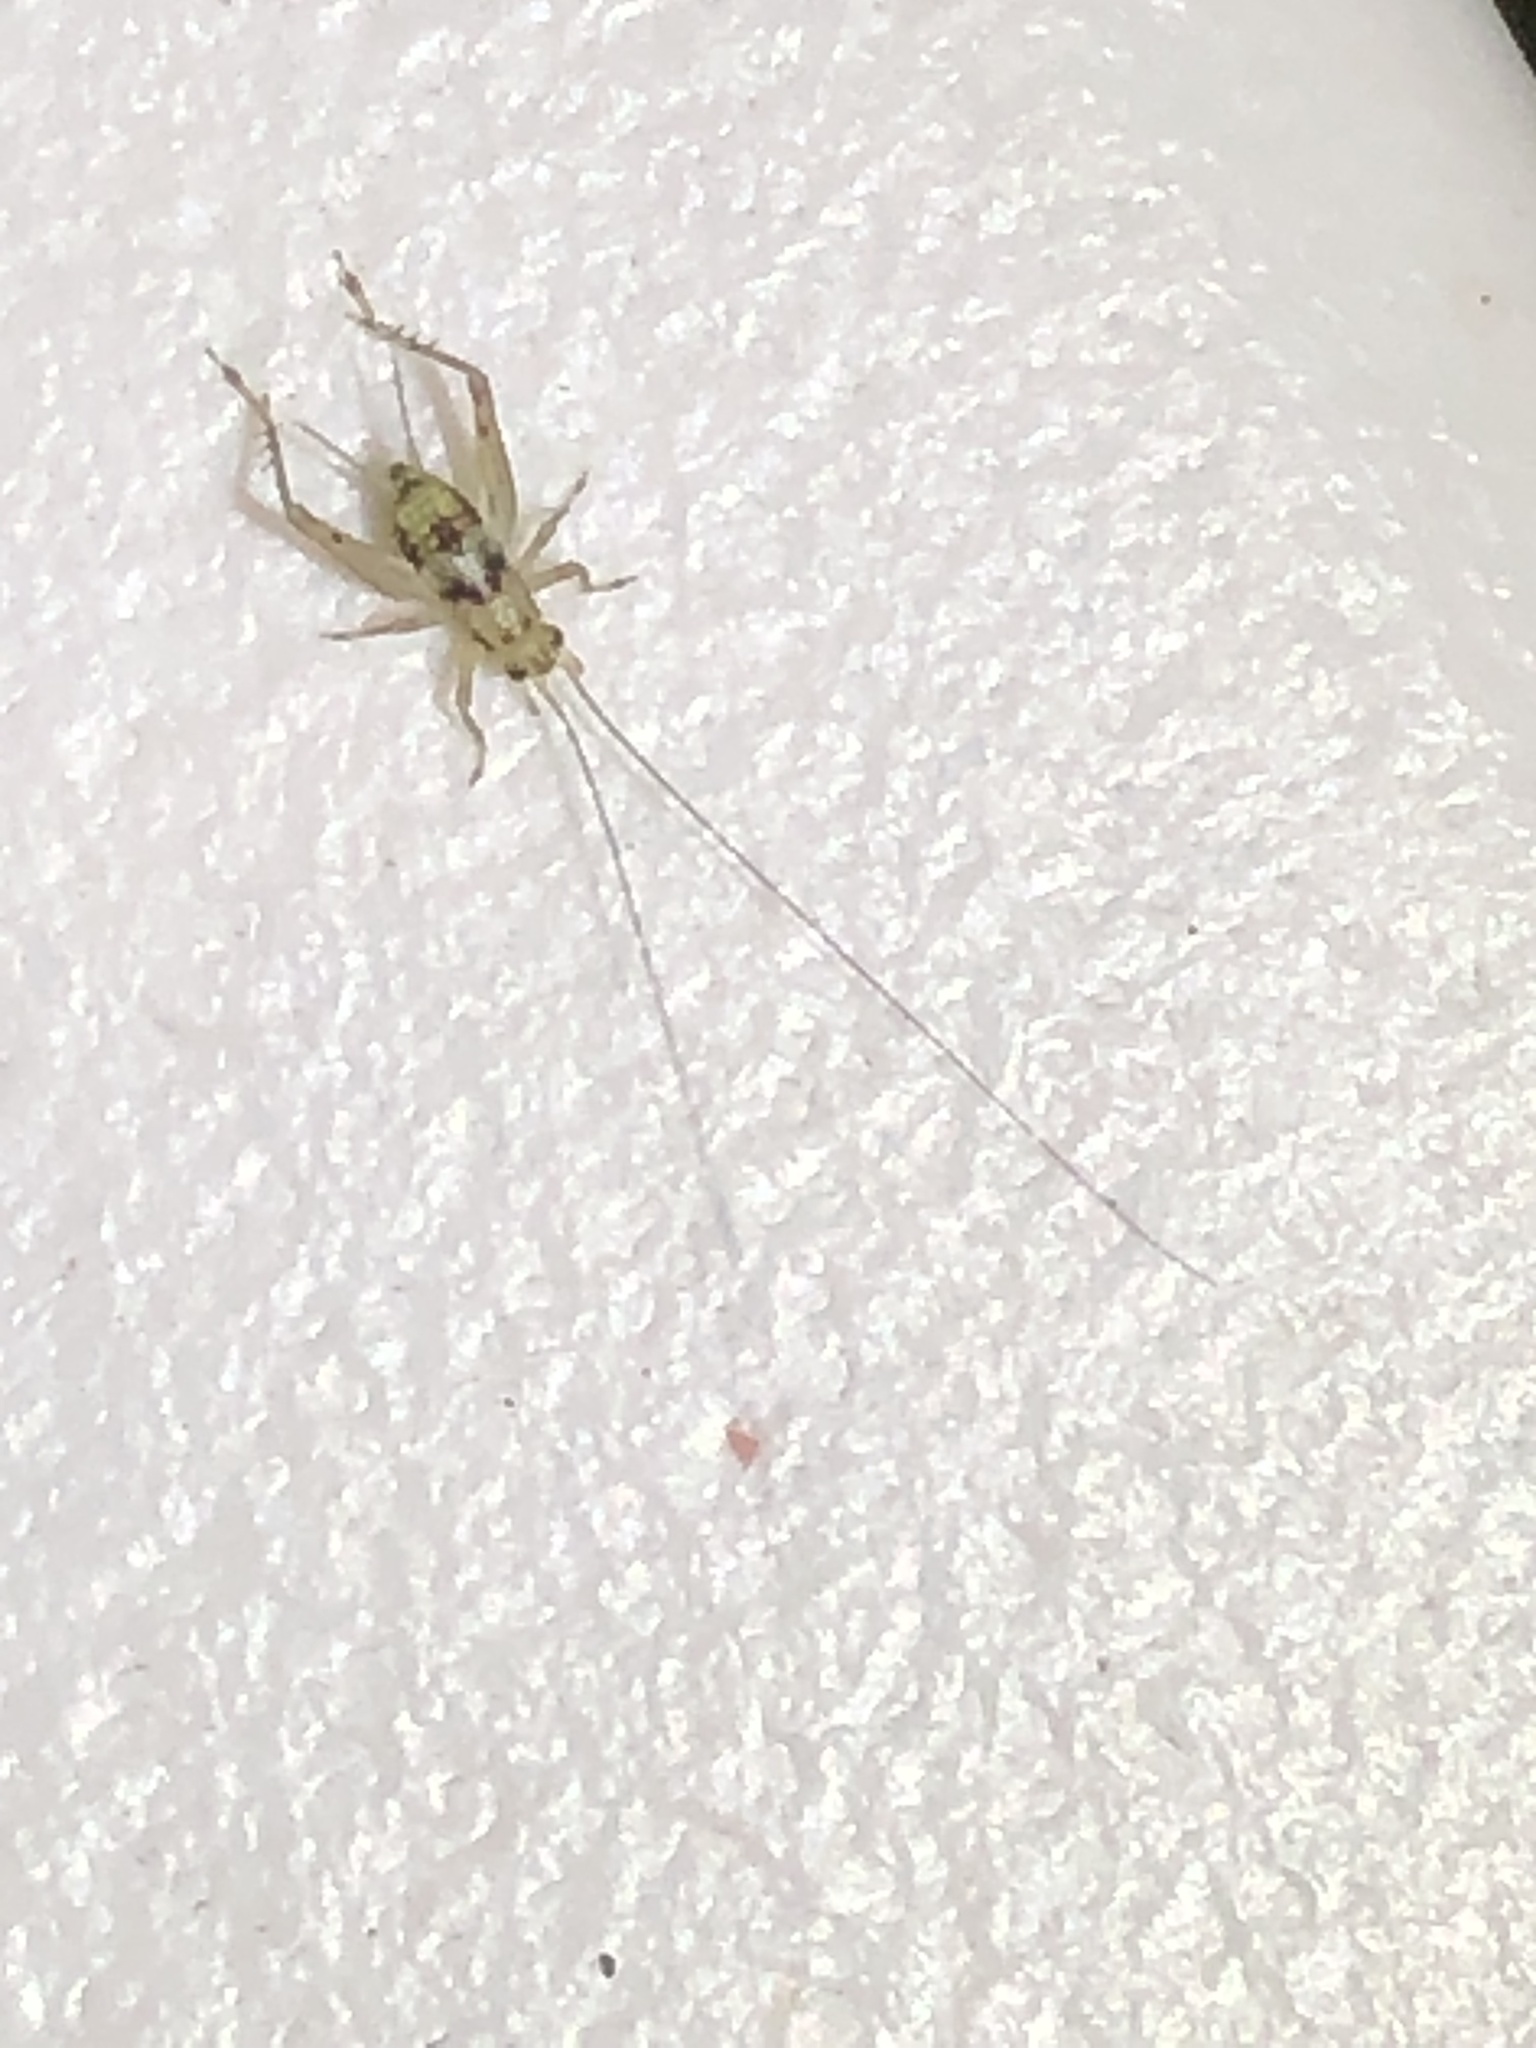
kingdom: Animalia
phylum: Arthropoda
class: Insecta
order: Orthoptera
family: Trigonidiidae
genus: Anaxipha
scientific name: Anaxipha exigua
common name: Say's bush cricket
